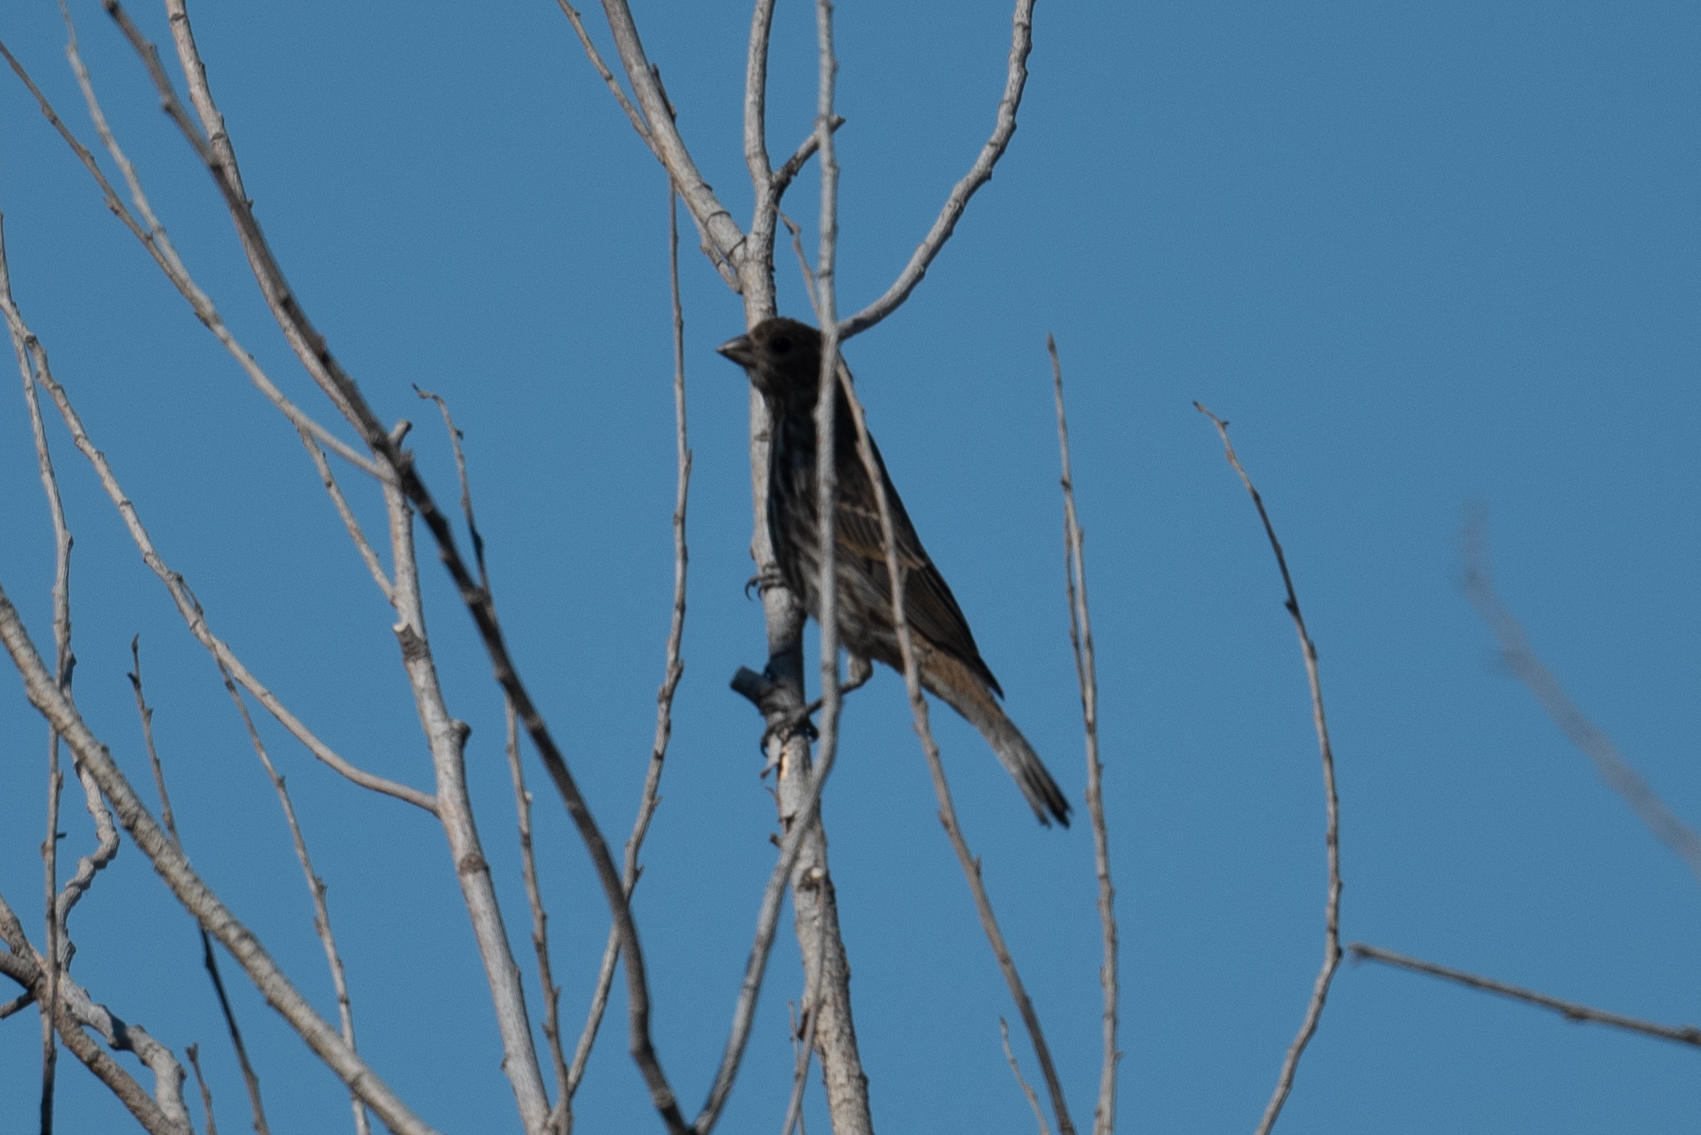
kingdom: Animalia
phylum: Chordata
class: Aves
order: Passeriformes
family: Fringillidae
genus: Haemorhous
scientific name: Haemorhous mexicanus
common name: House finch
